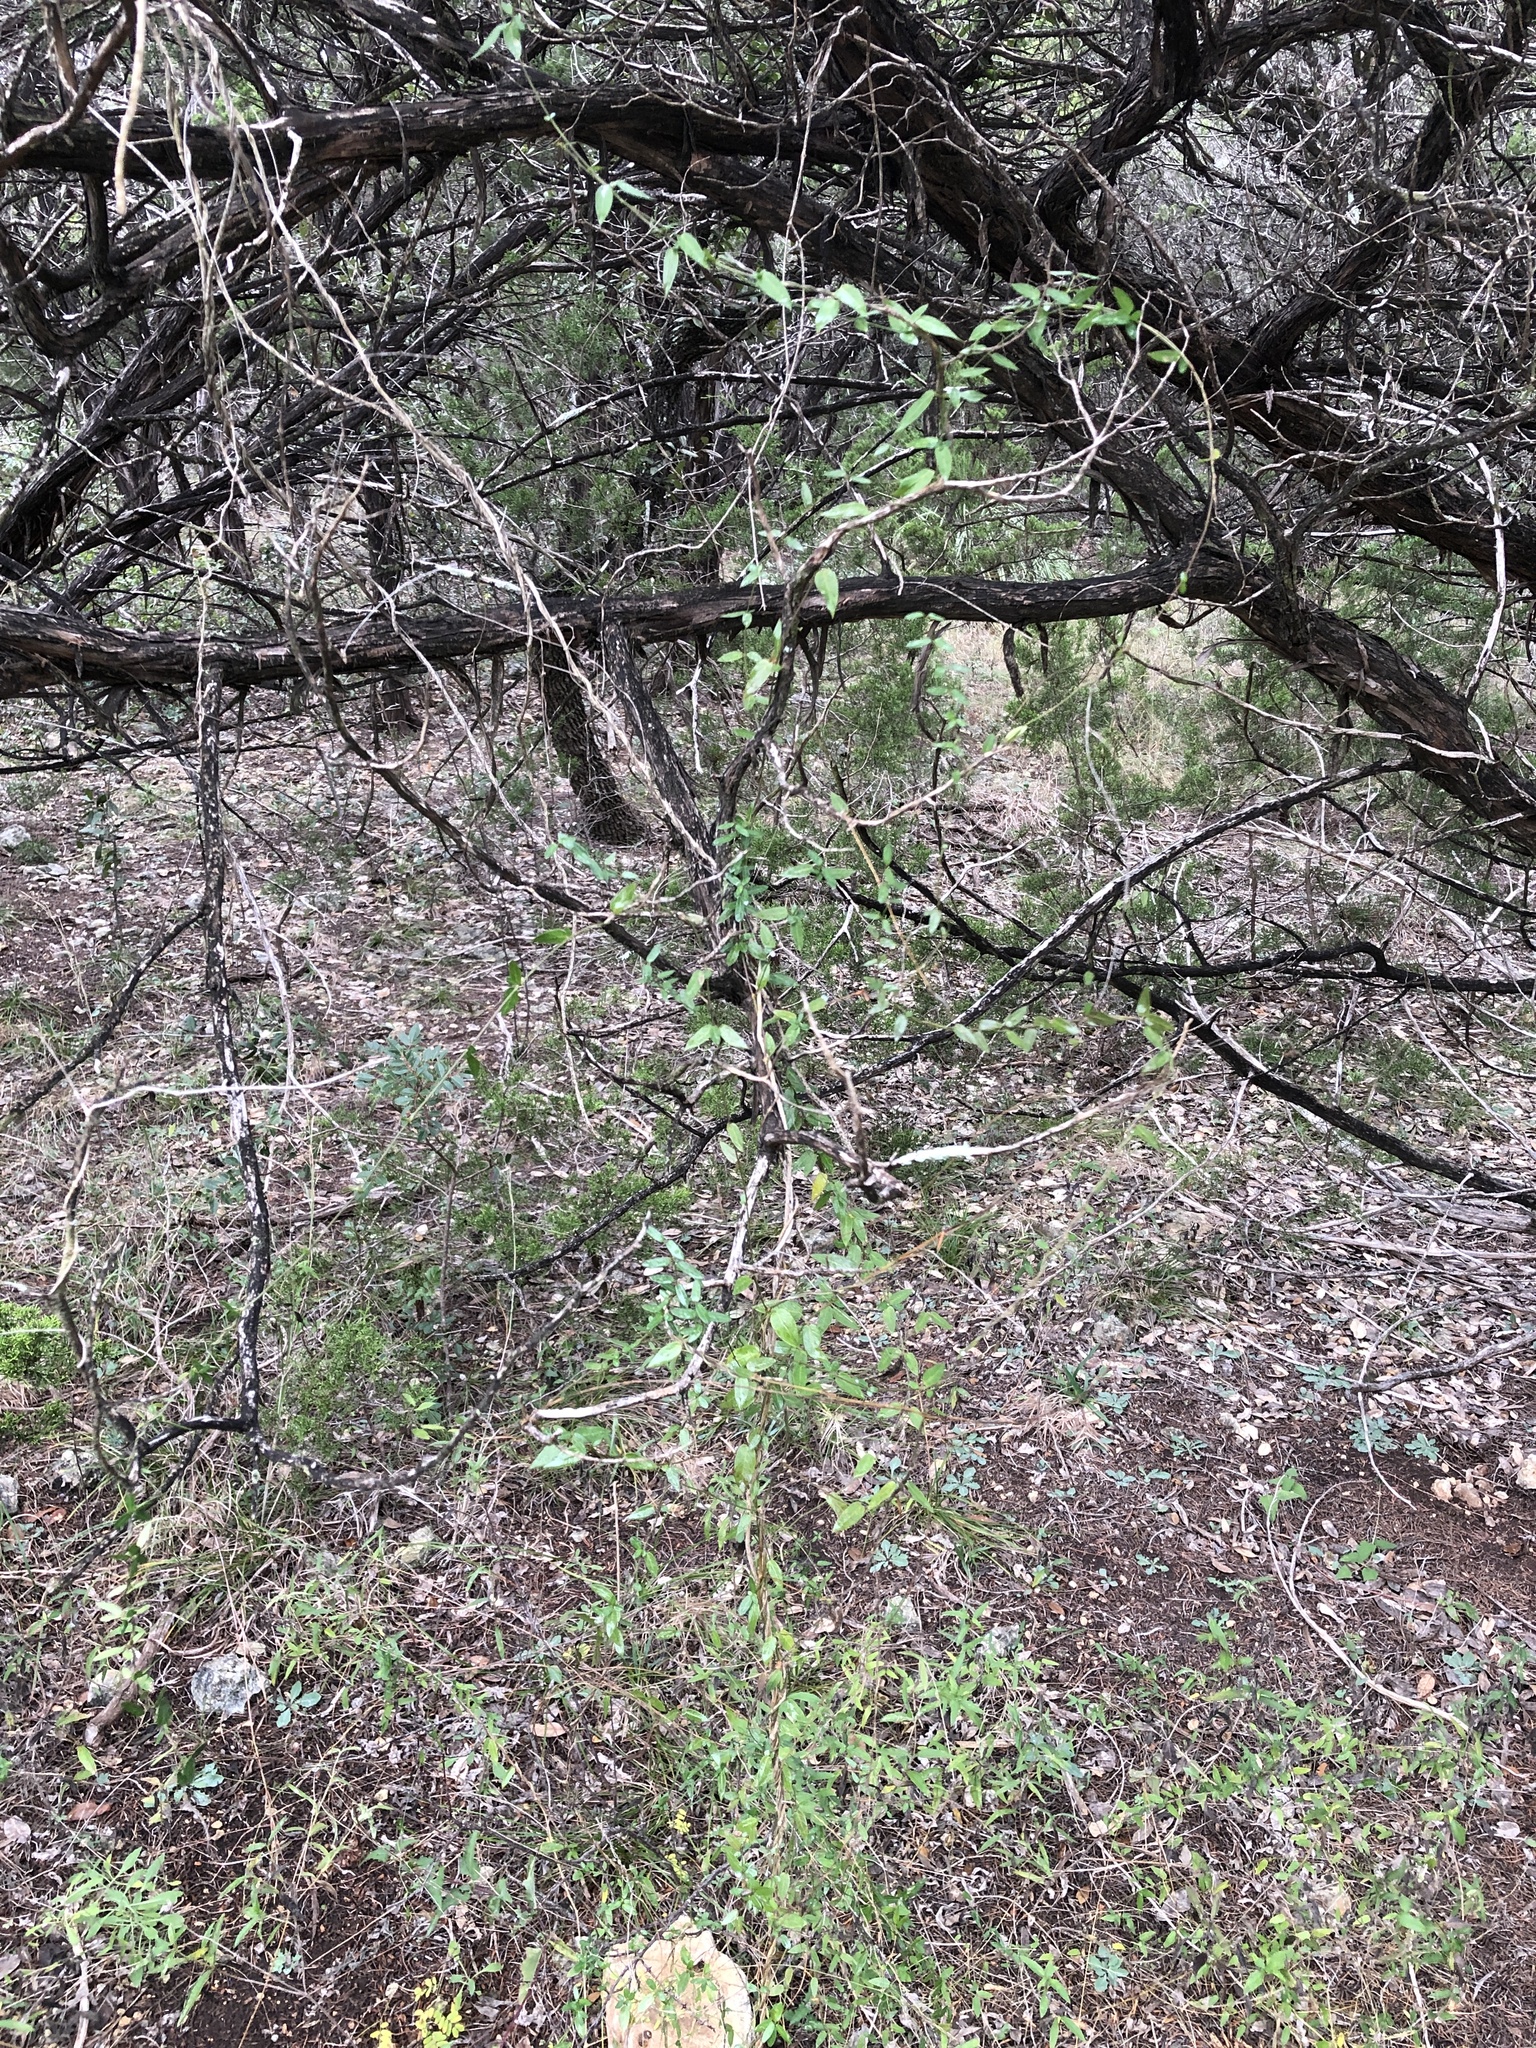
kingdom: Plantae
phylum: Tracheophyta
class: Magnoliopsida
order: Gentianales
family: Apocynaceae
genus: Metastelma
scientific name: Metastelma barbigerum
